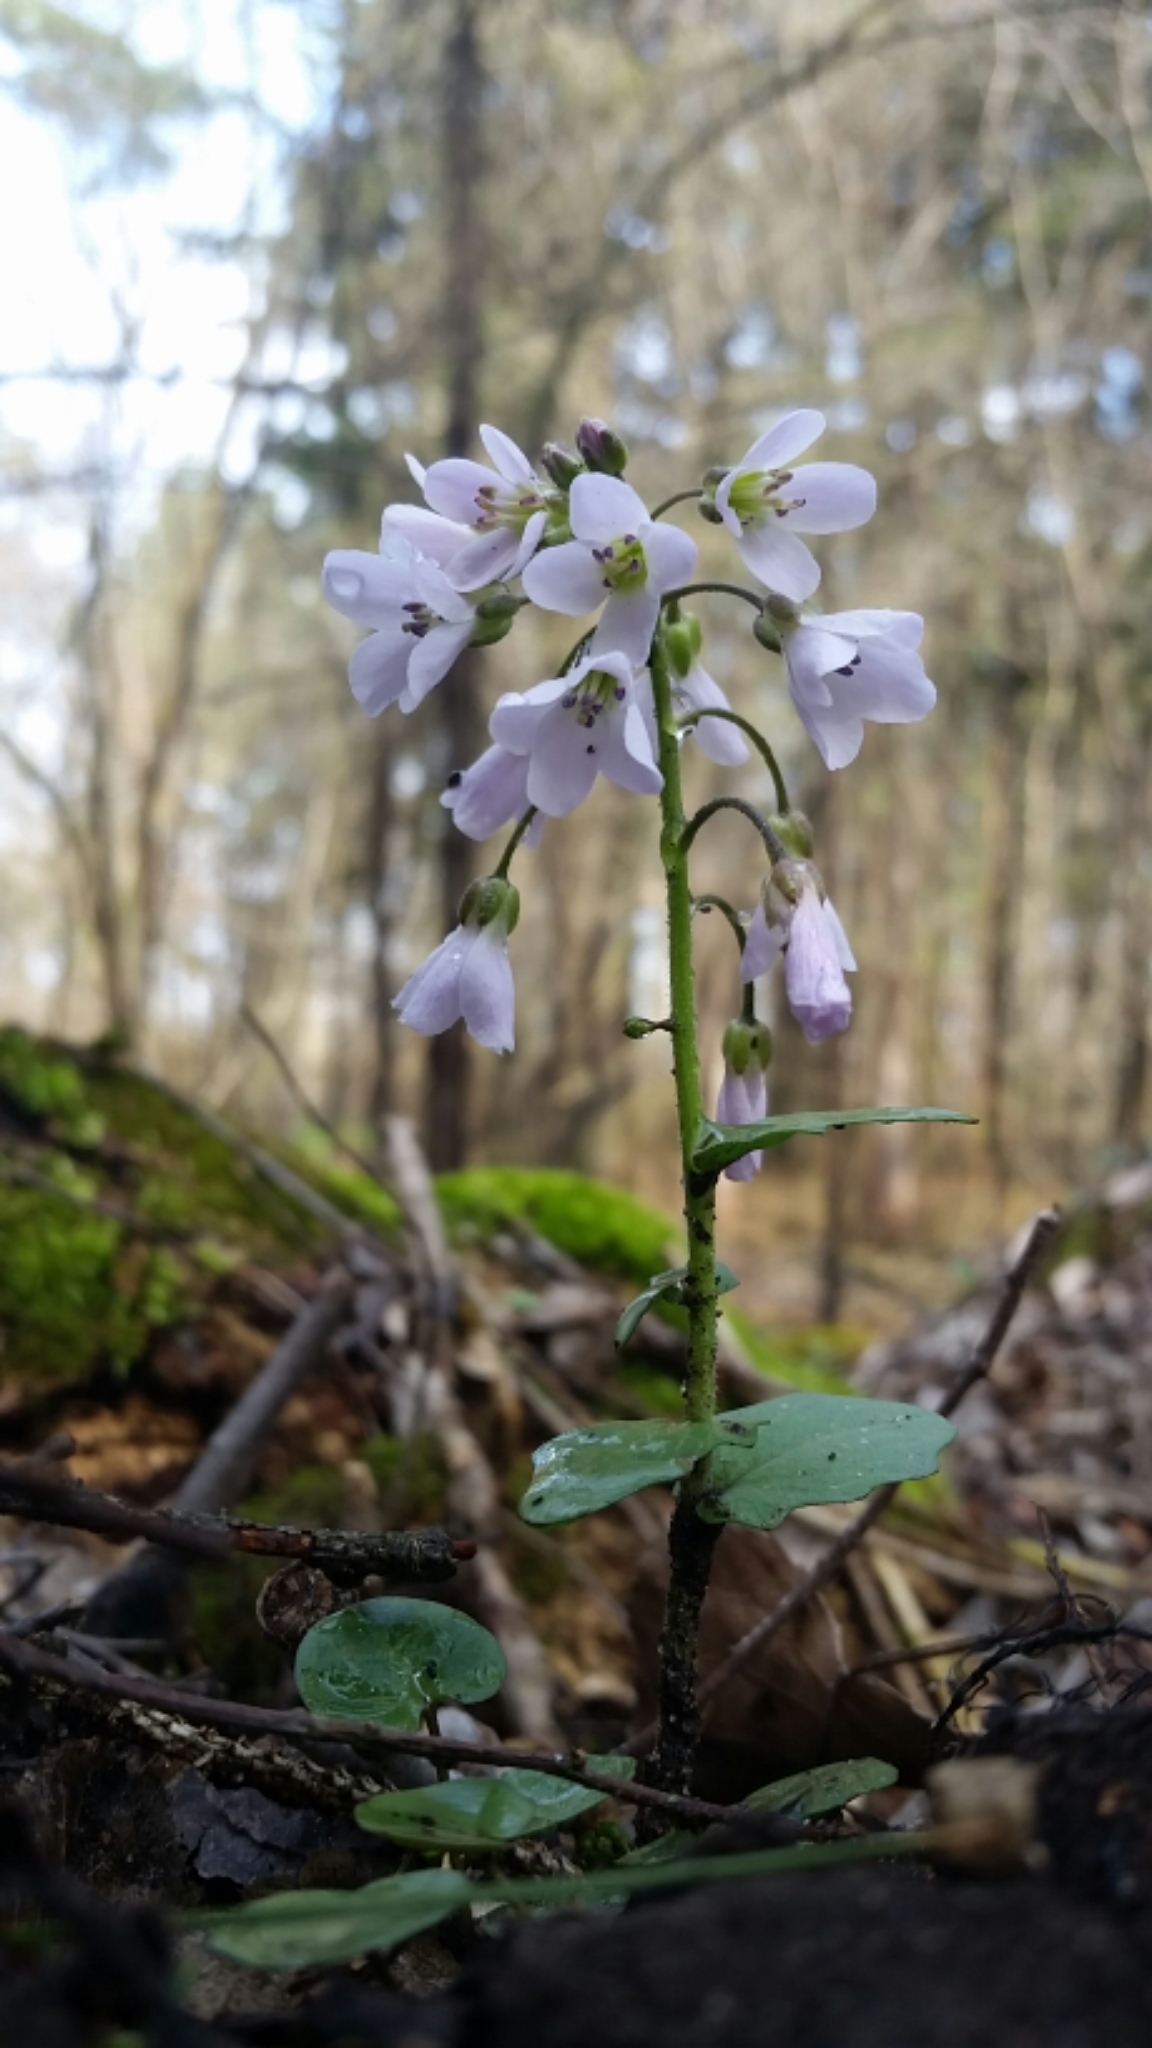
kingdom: Plantae
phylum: Tracheophyta
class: Magnoliopsida
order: Brassicales
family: Brassicaceae
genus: Cardamine
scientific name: Cardamine douglassii
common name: Purple cress
